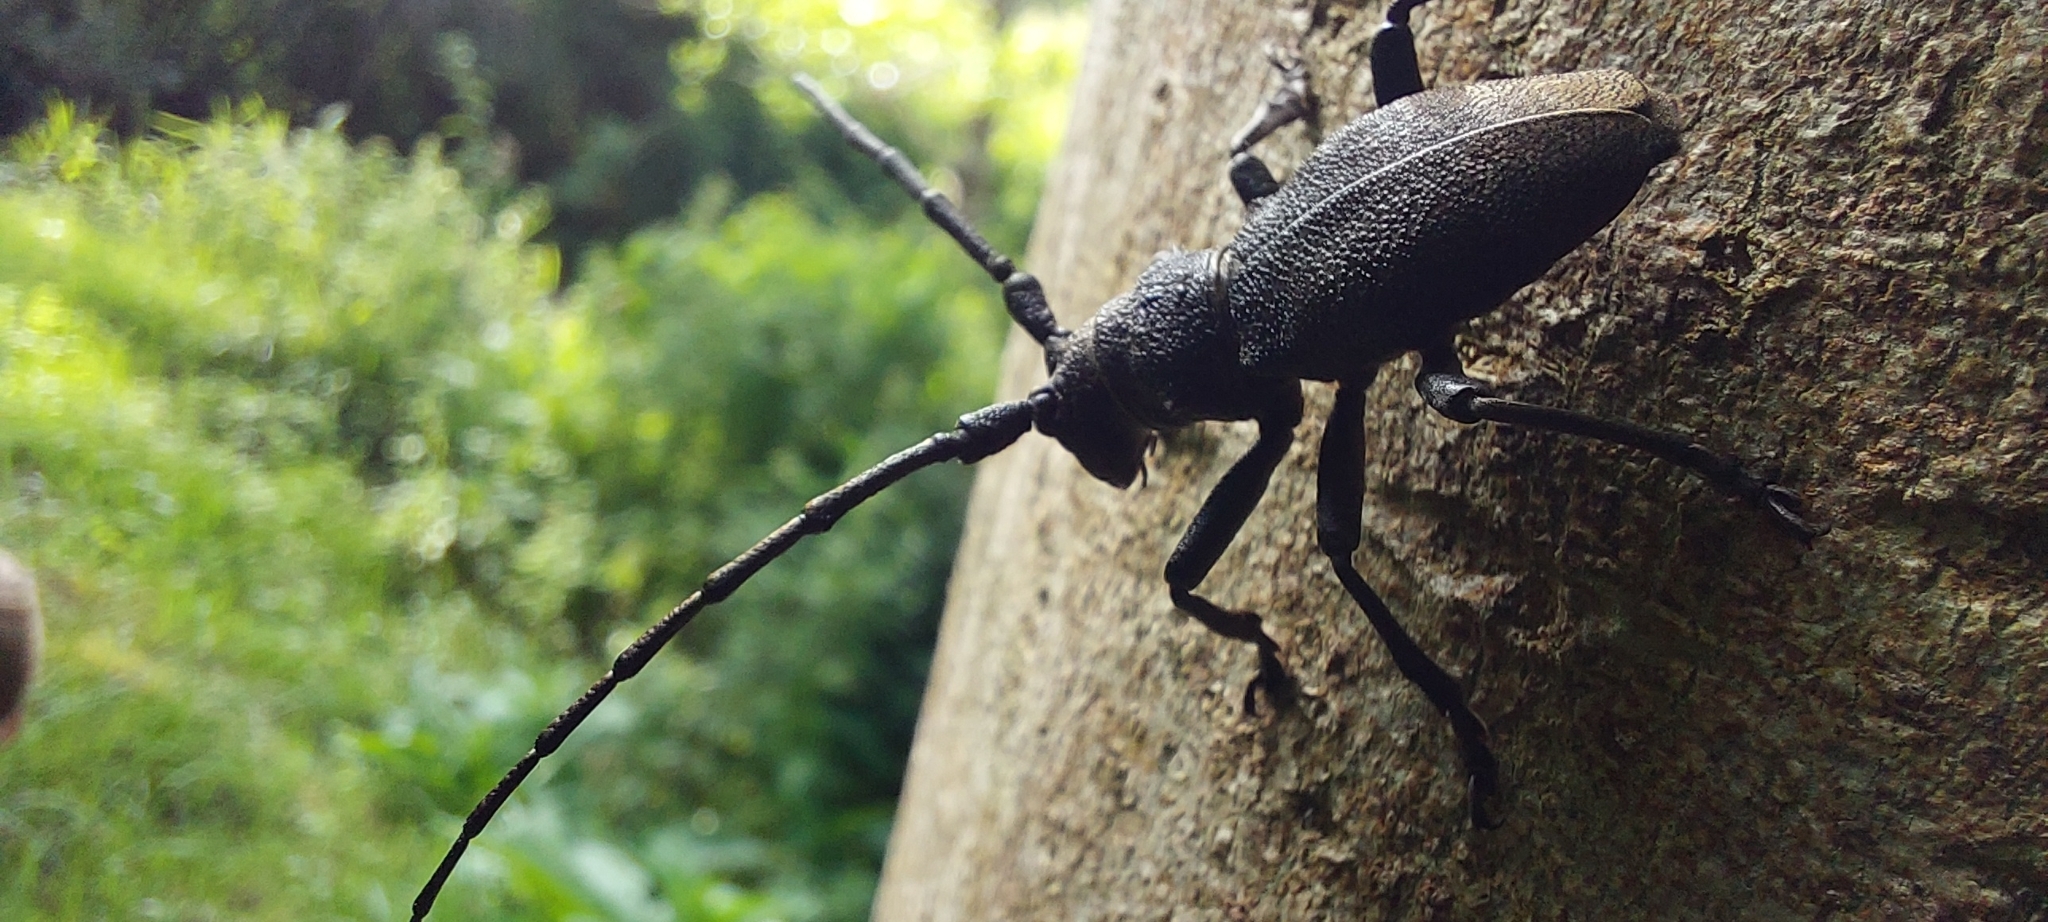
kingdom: Animalia
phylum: Arthropoda
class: Insecta
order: Coleoptera
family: Cerambycidae
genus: Morimus
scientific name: Morimus asper
